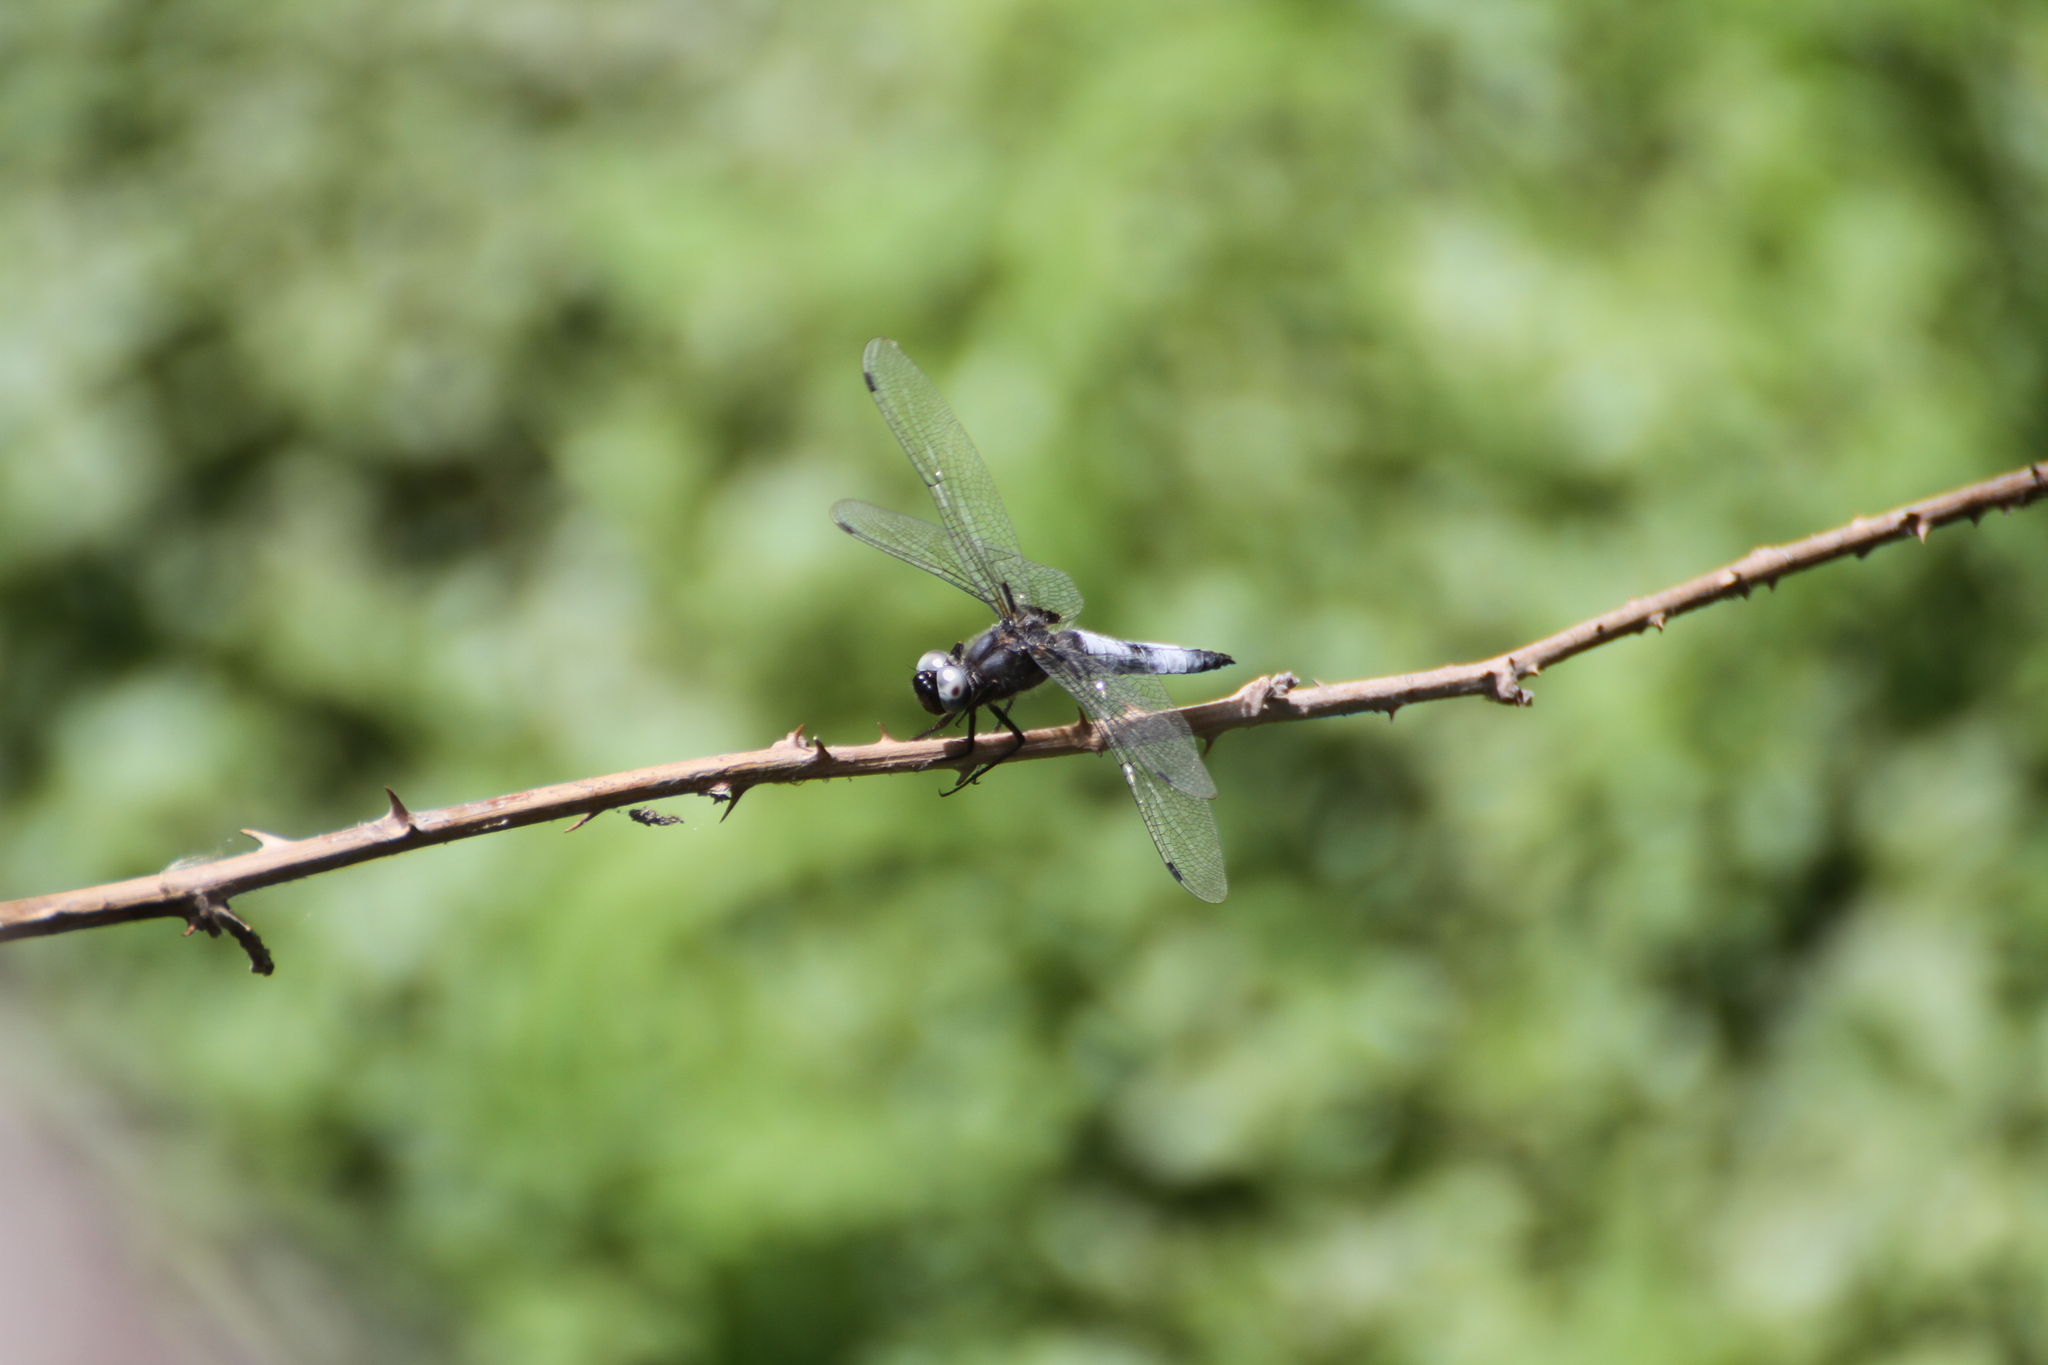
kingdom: Animalia
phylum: Arthropoda
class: Insecta
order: Odonata
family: Libellulidae
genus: Libellula
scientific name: Libellula fulva
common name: Blue chaser
